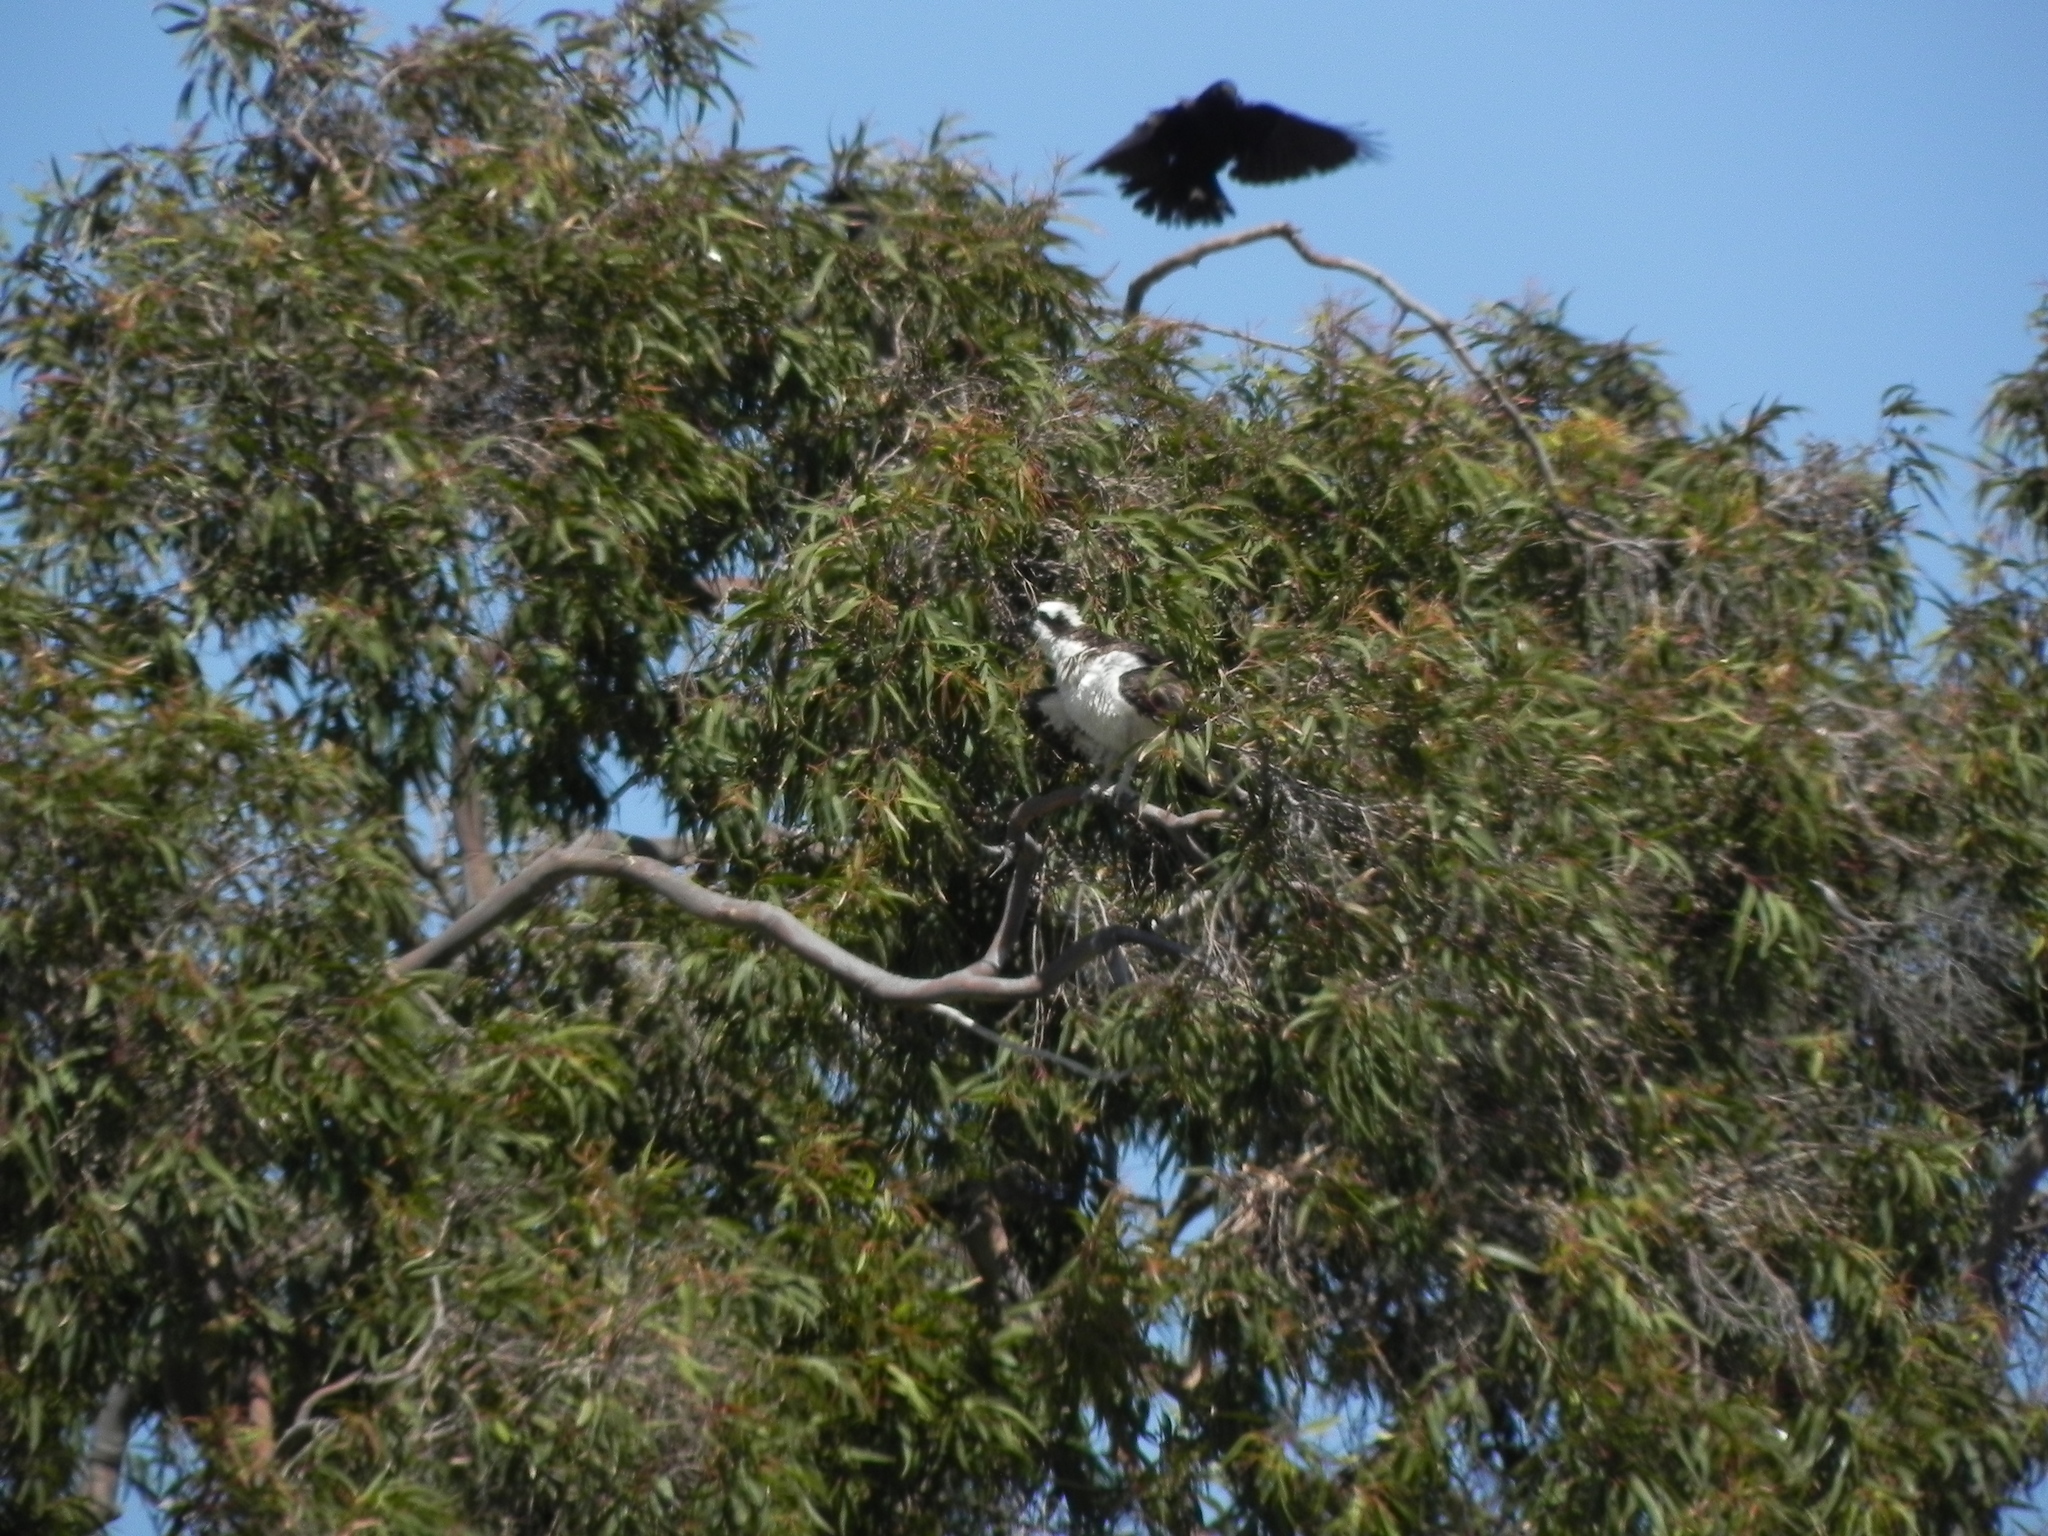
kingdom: Animalia
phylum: Chordata
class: Aves
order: Accipitriformes
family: Pandionidae
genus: Pandion
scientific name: Pandion haliaetus
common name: Osprey
